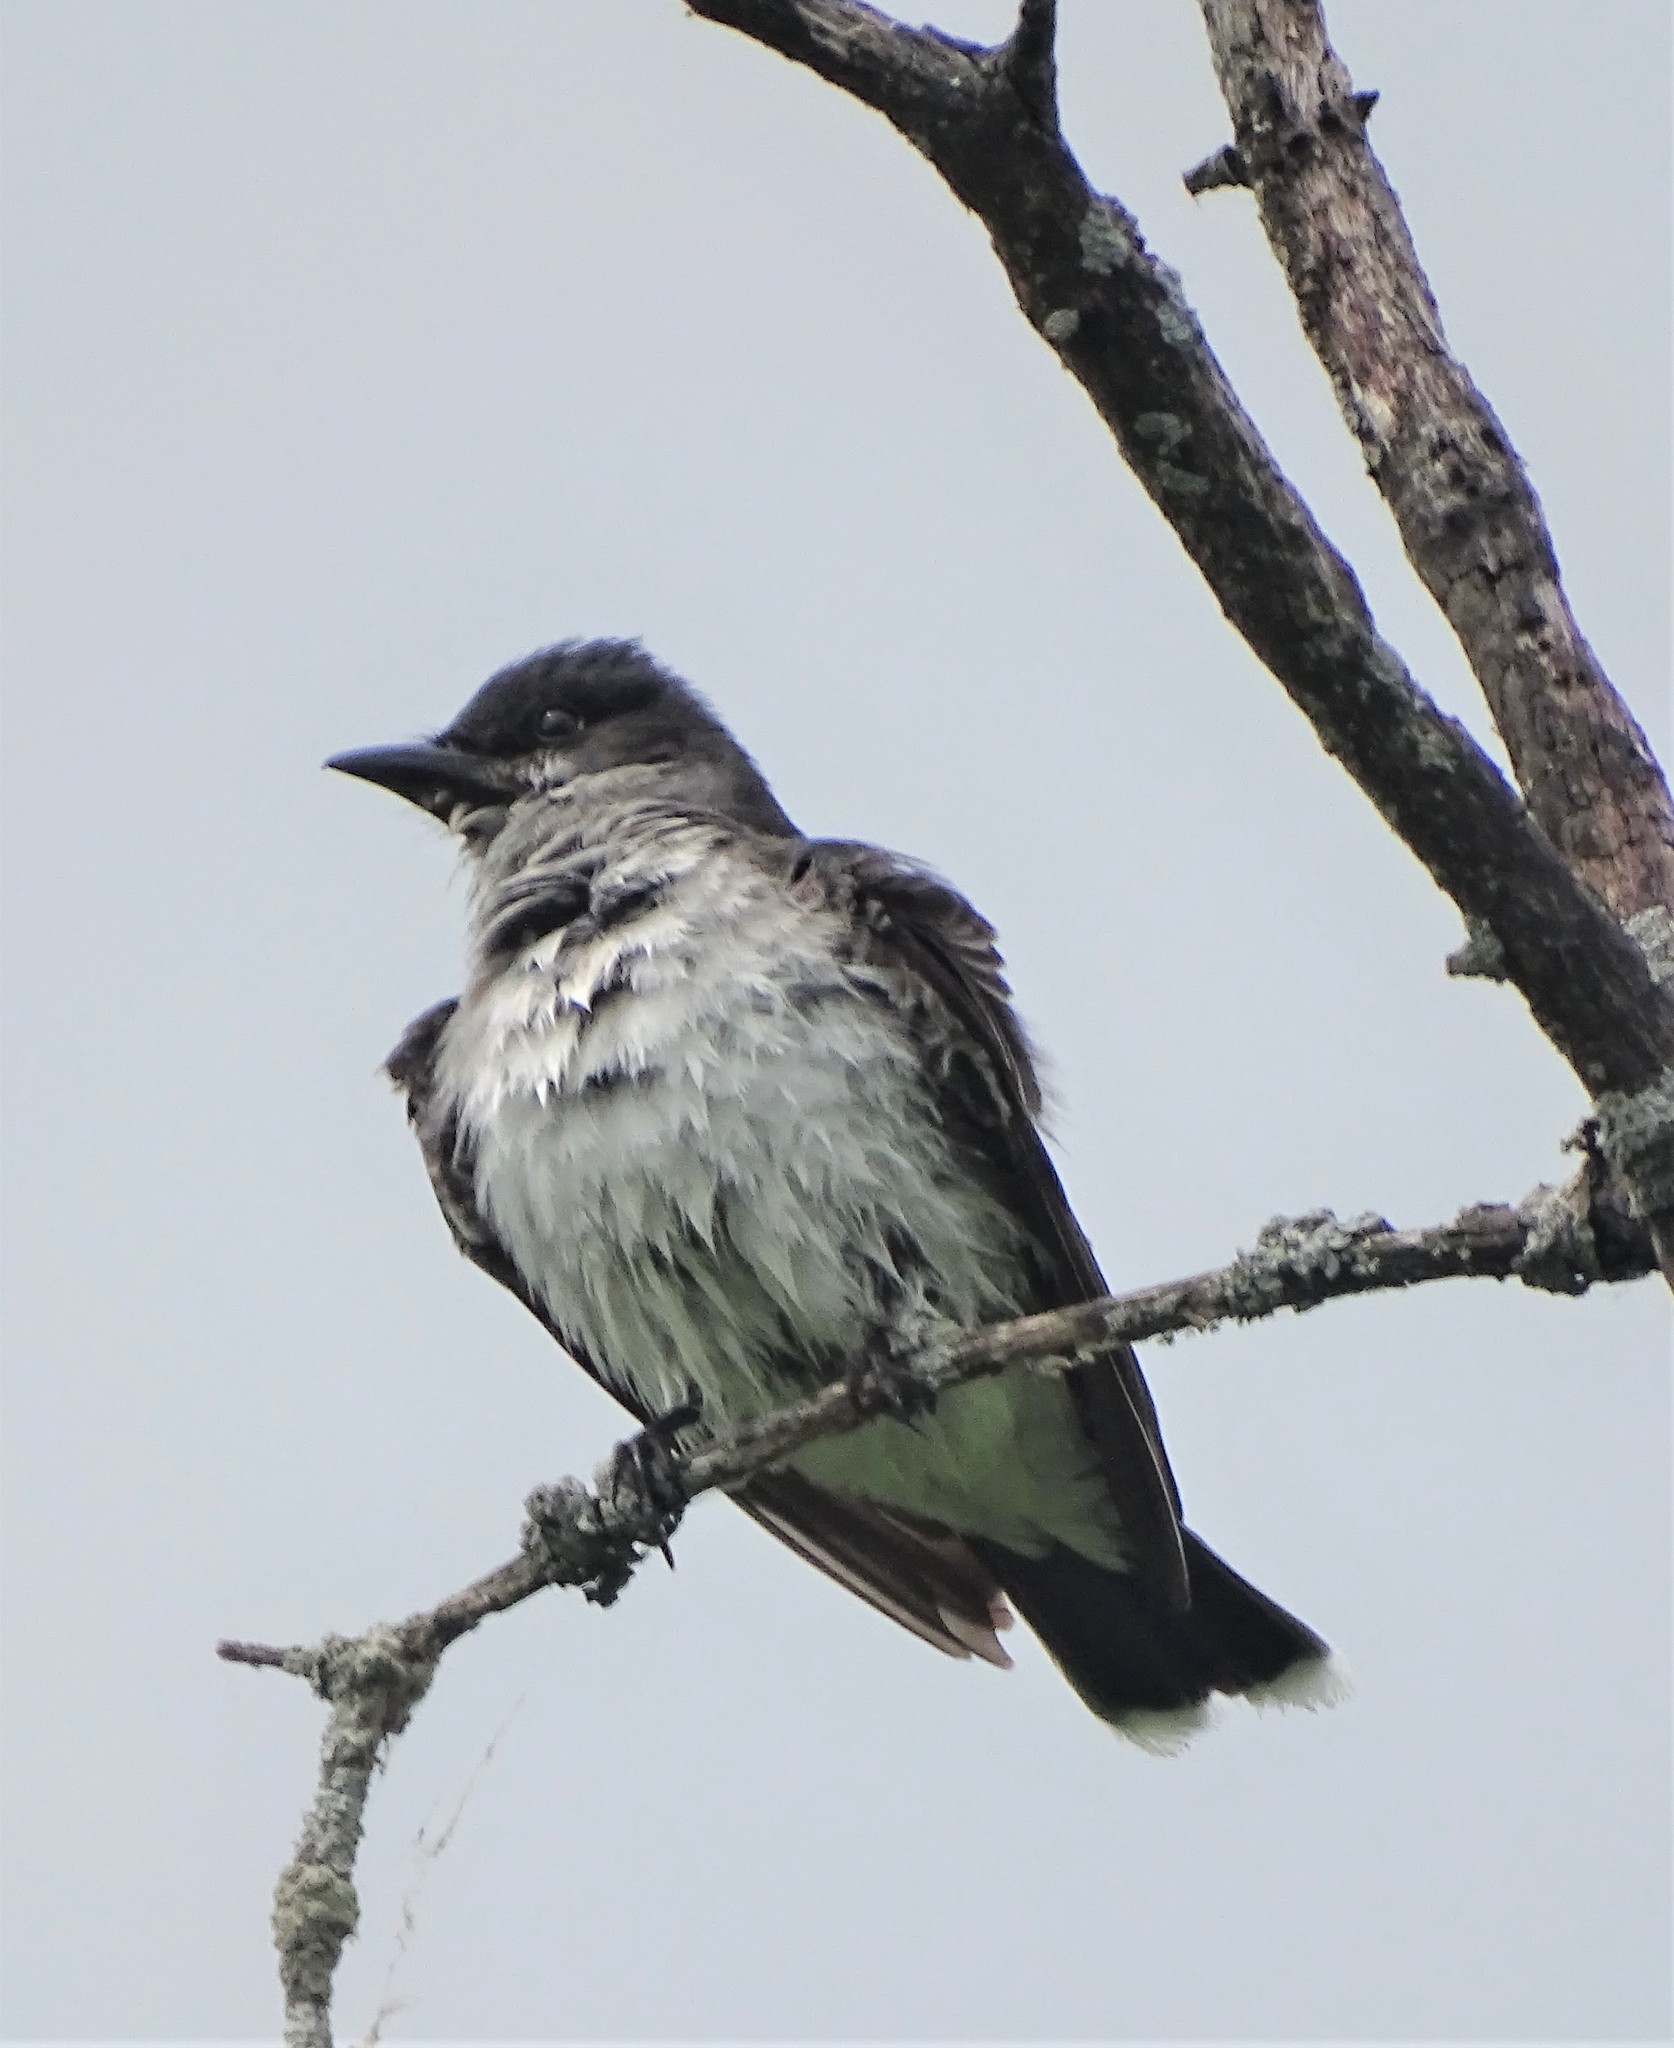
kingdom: Animalia
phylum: Chordata
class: Aves
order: Passeriformes
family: Tyrannidae
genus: Tyrannus
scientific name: Tyrannus tyrannus
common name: Eastern kingbird
